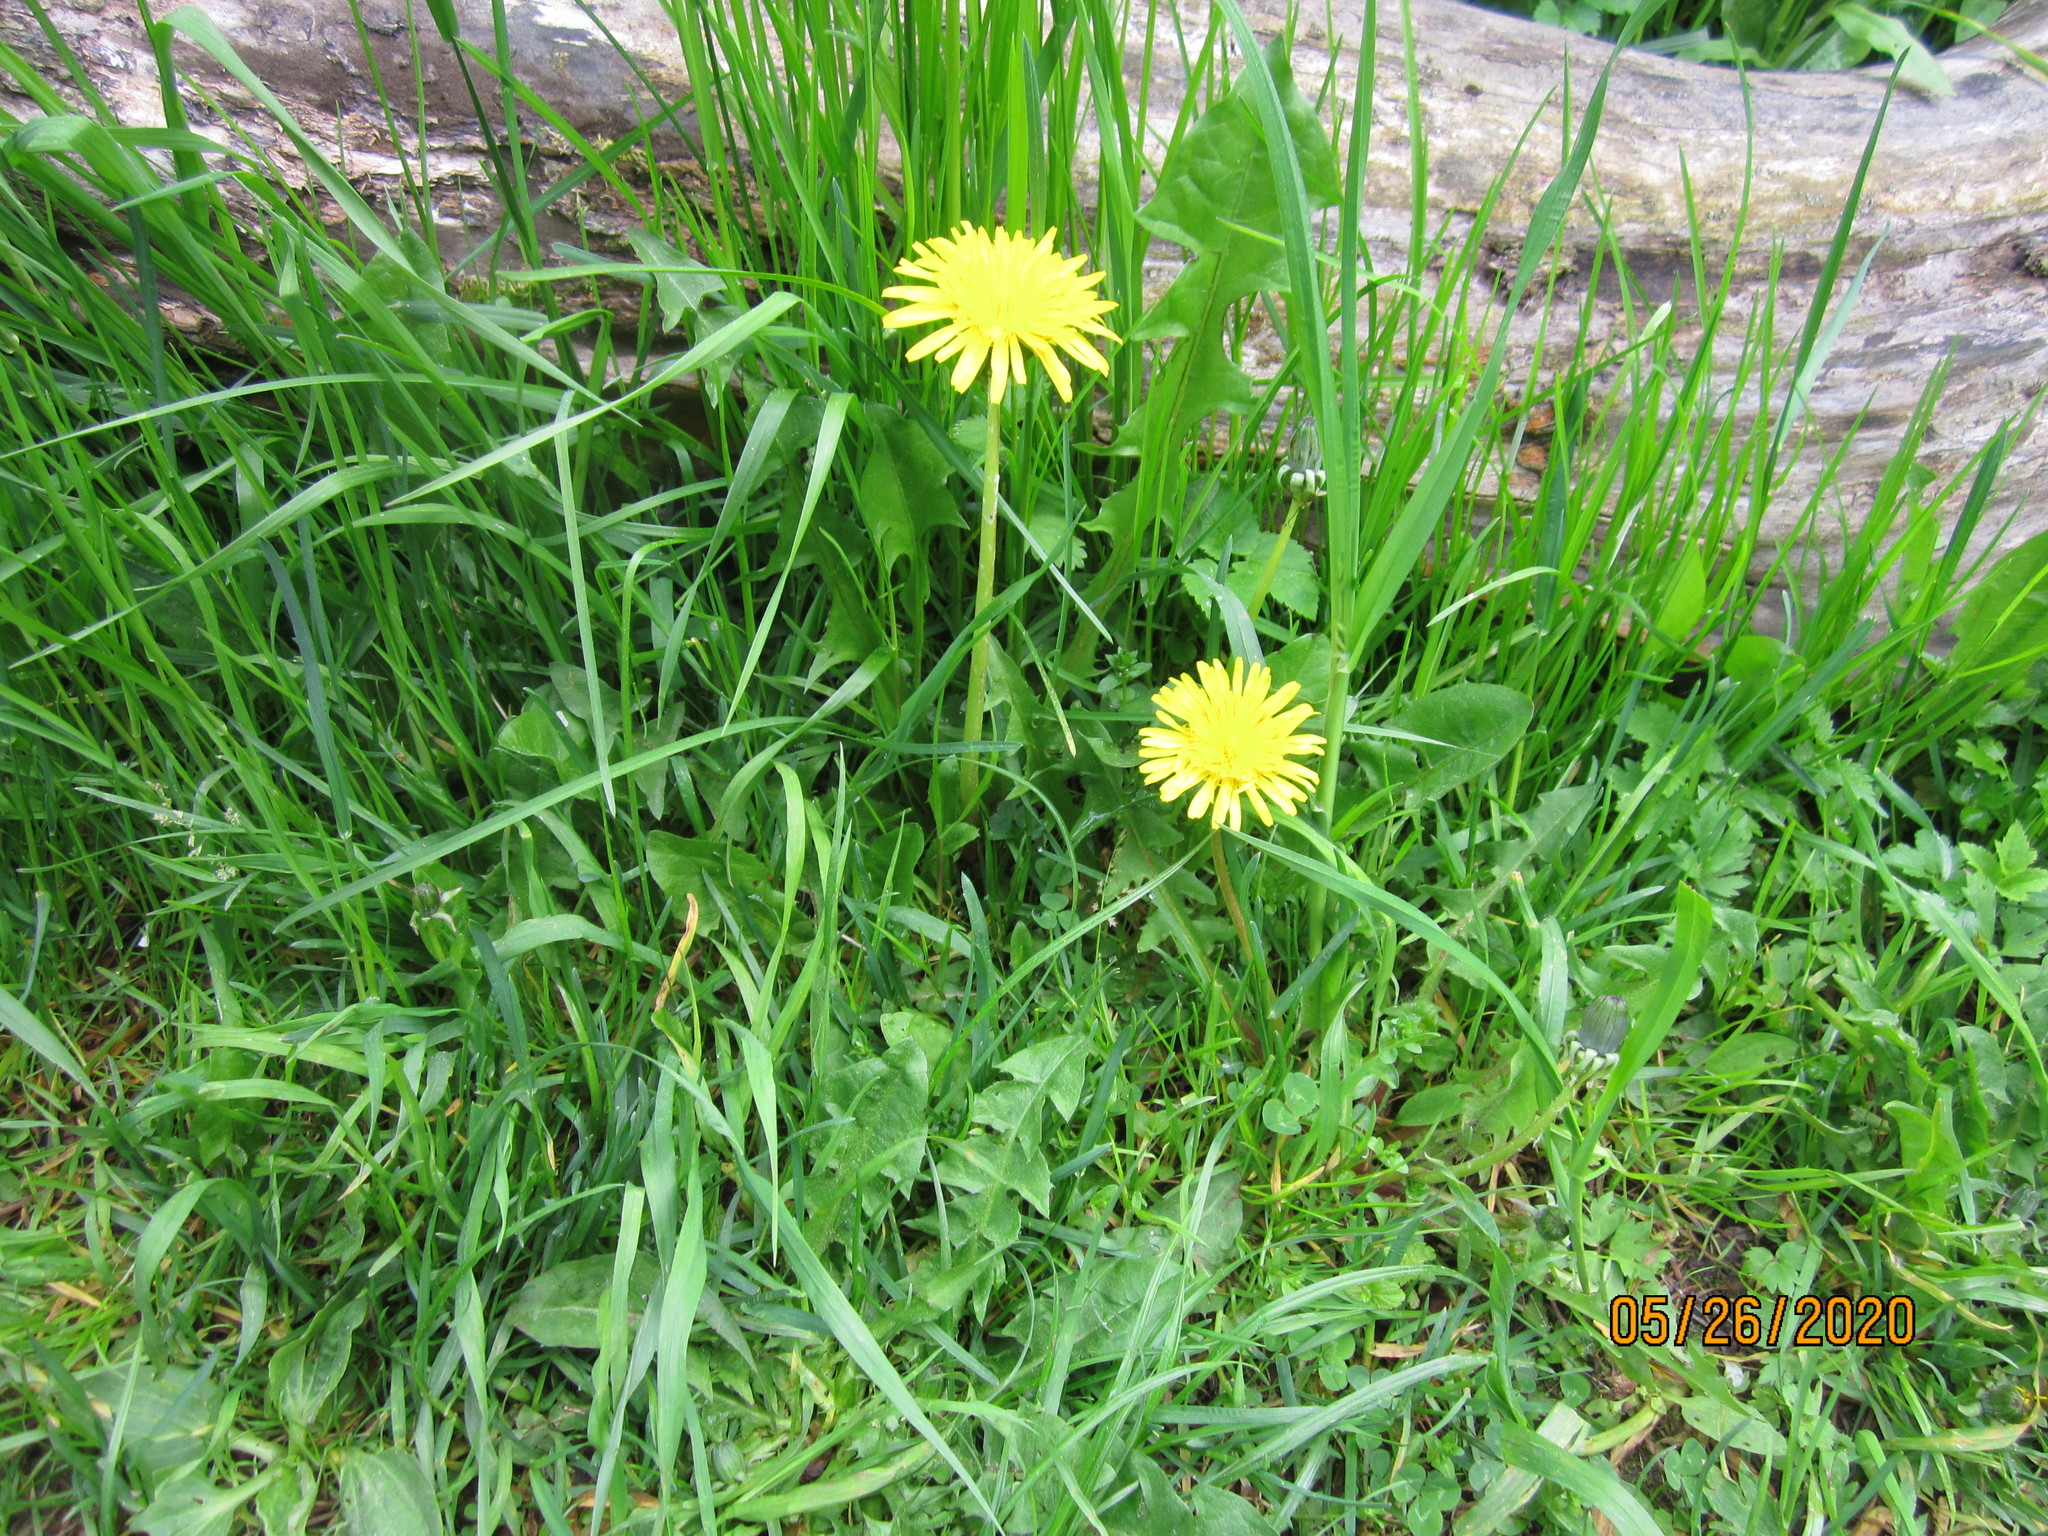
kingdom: Plantae
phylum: Tracheophyta
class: Magnoliopsida
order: Asterales
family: Asteraceae
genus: Taraxacum
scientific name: Taraxacum officinale
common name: Common dandelion
